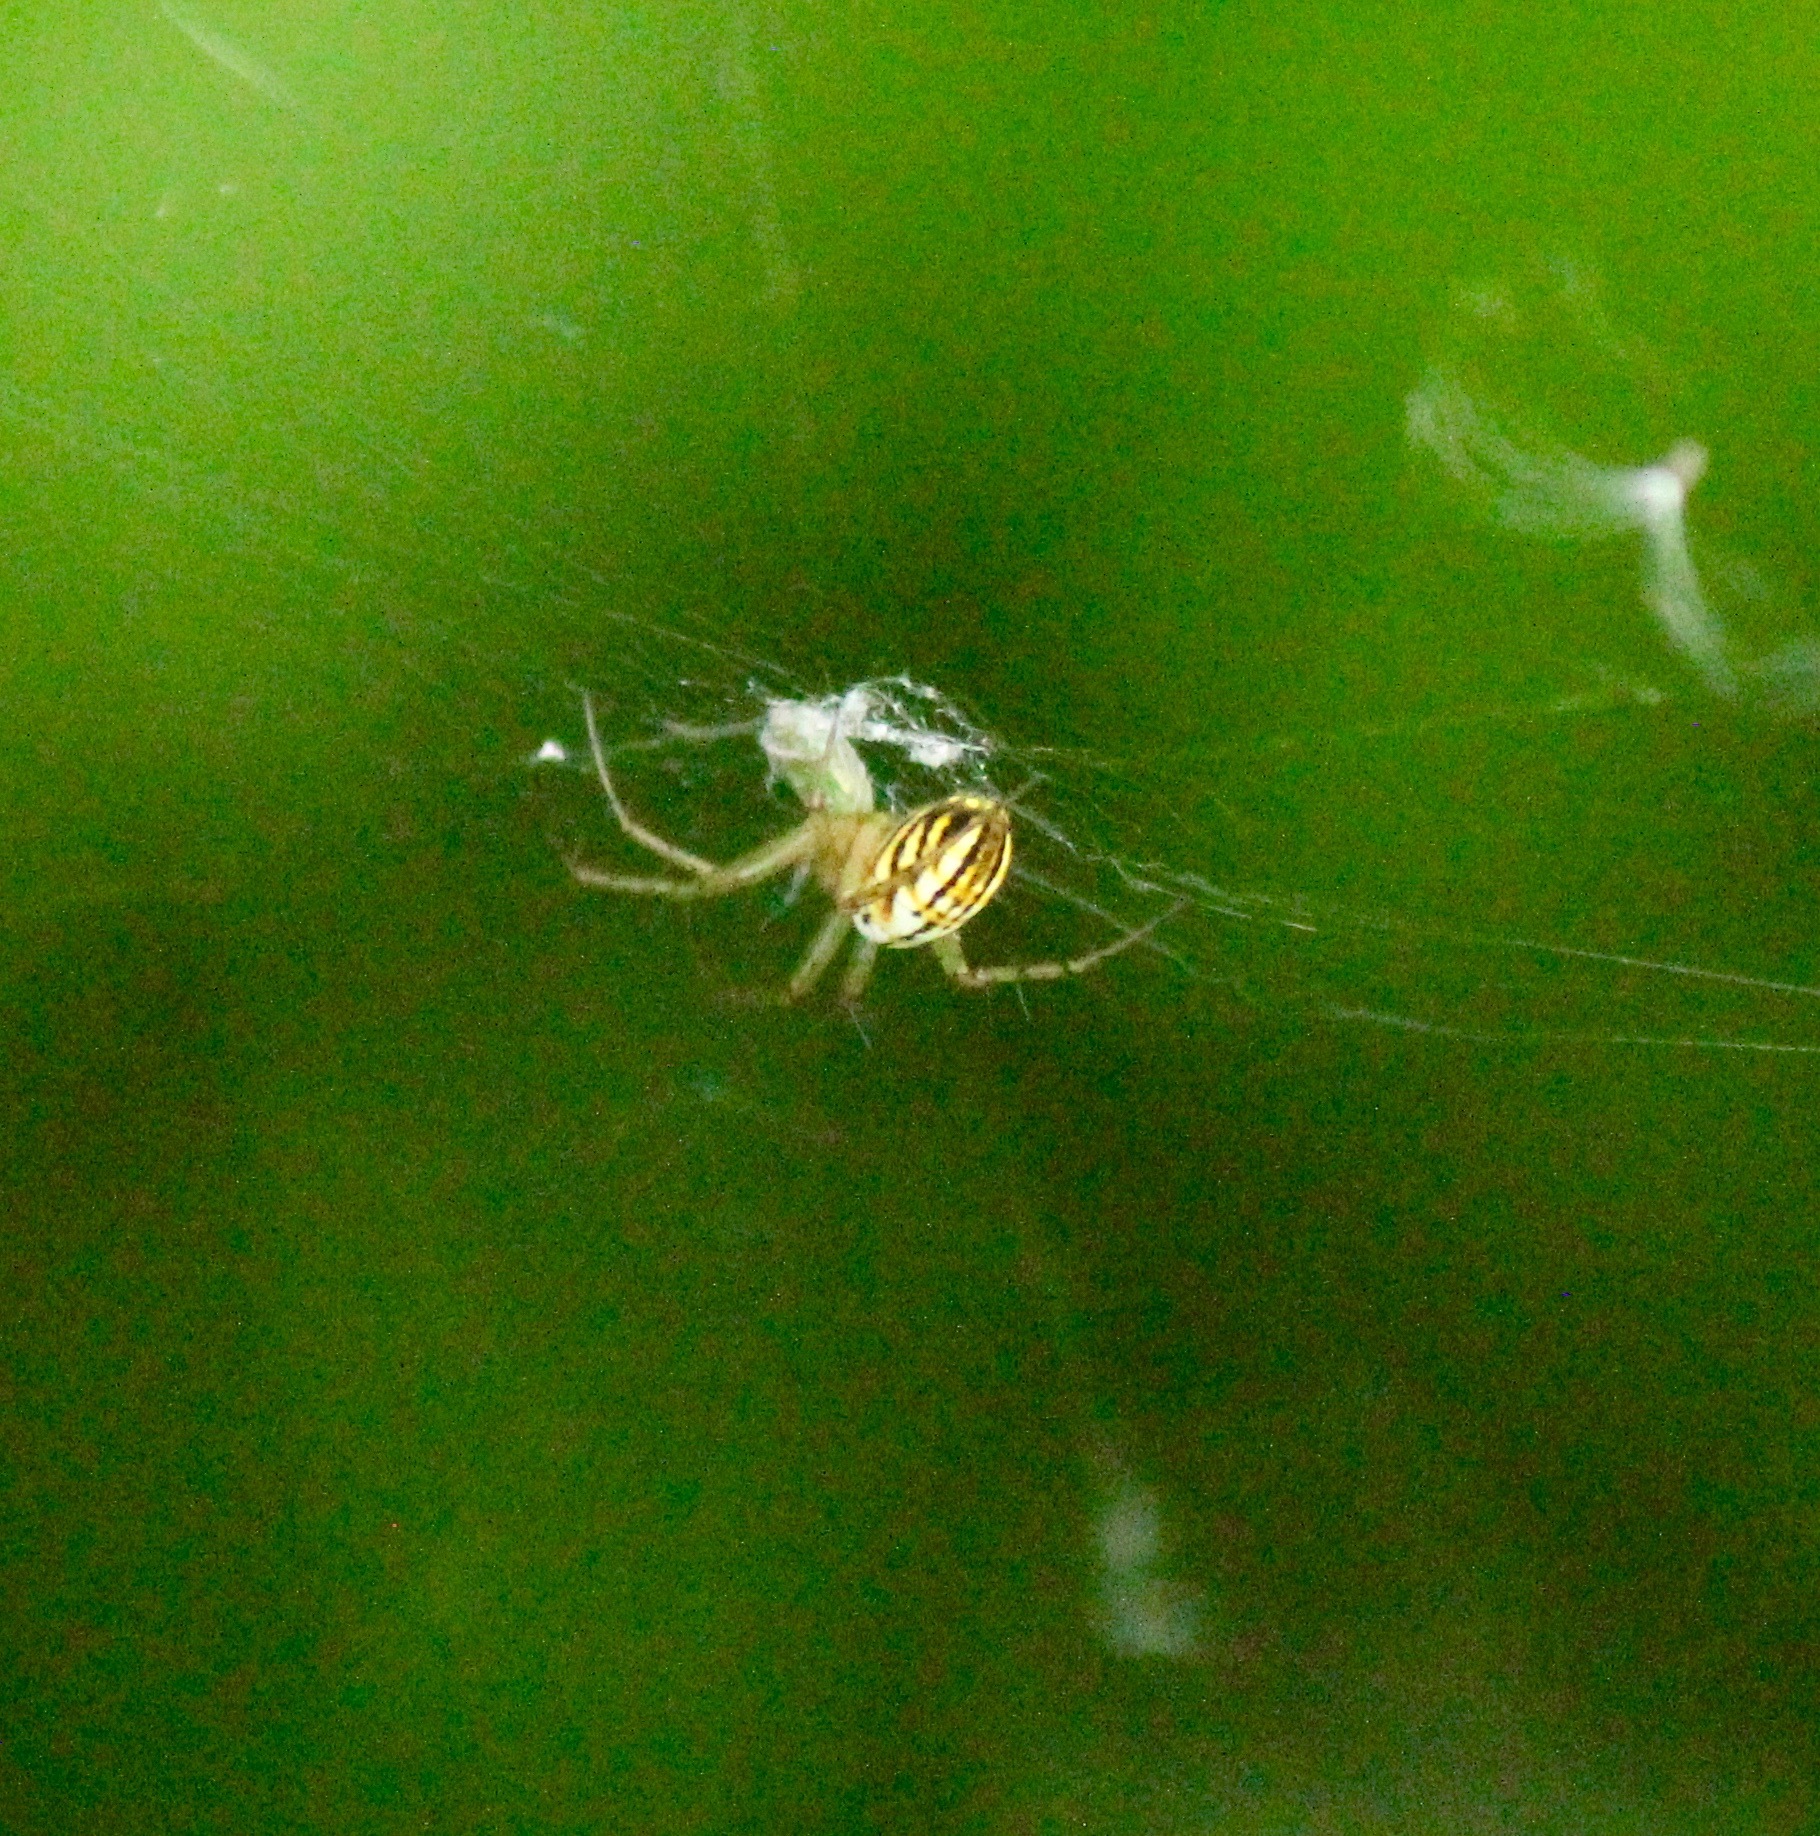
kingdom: Animalia
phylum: Arthropoda
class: Arachnida
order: Araneae
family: Araneidae
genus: Mangora
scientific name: Mangora gibberosa
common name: Lined orbweaver
